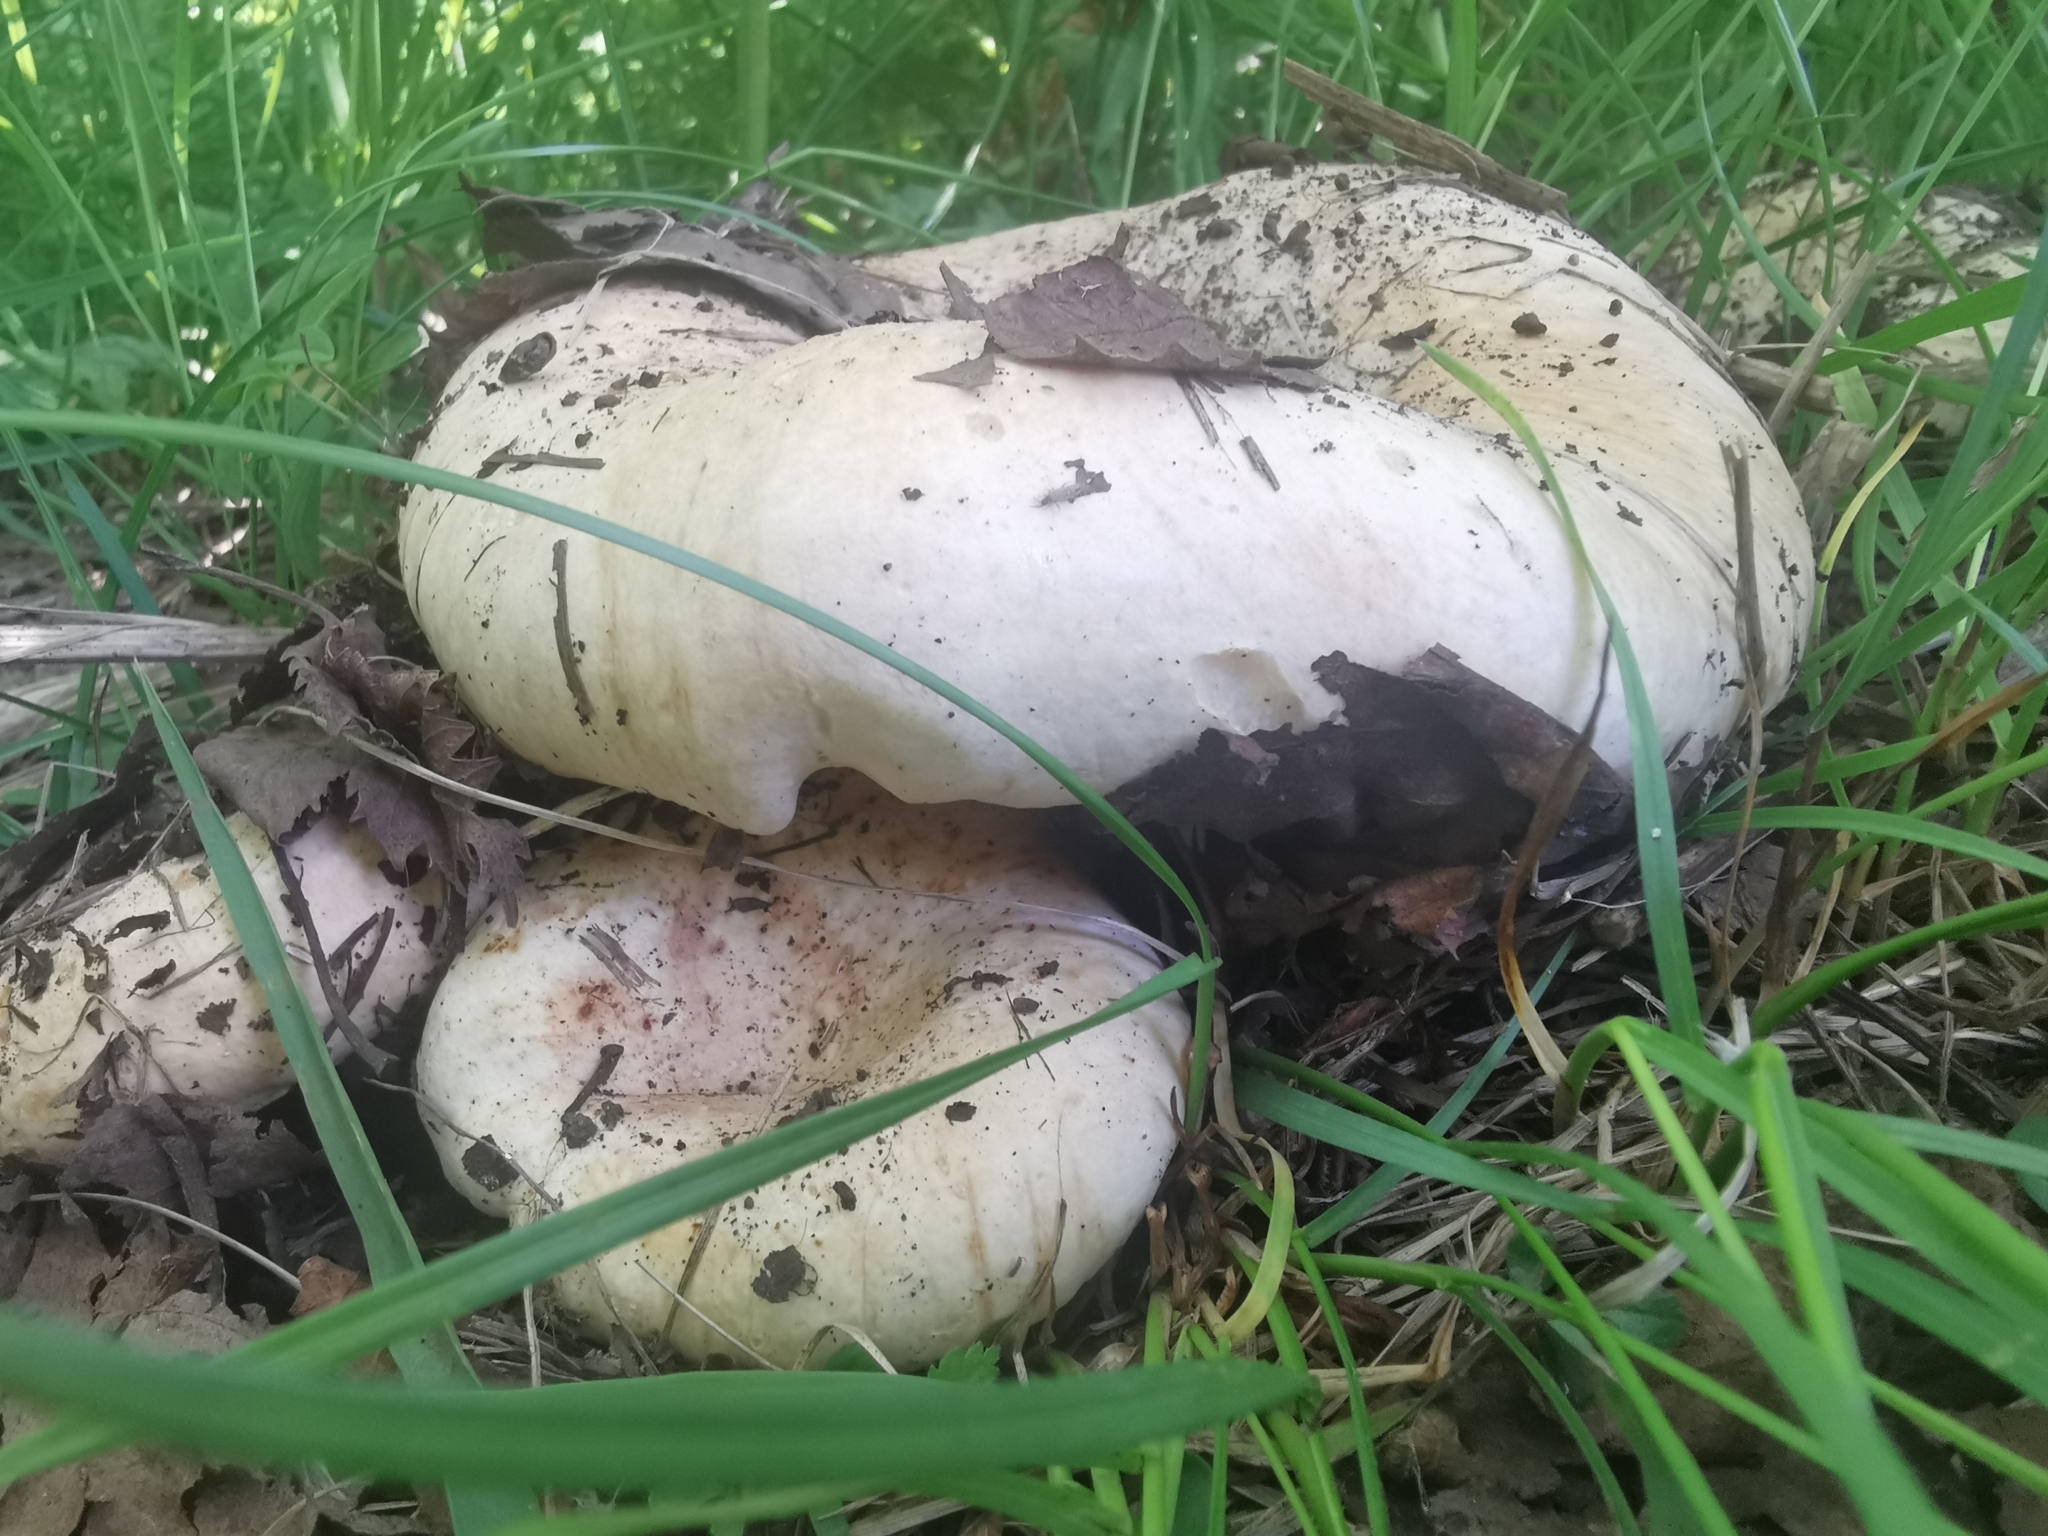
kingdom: Fungi
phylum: Basidiomycota
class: Agaricomycetes
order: Russulales
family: Russulaceae
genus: Russula
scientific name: Russula delica
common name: Milk white brittlegill
